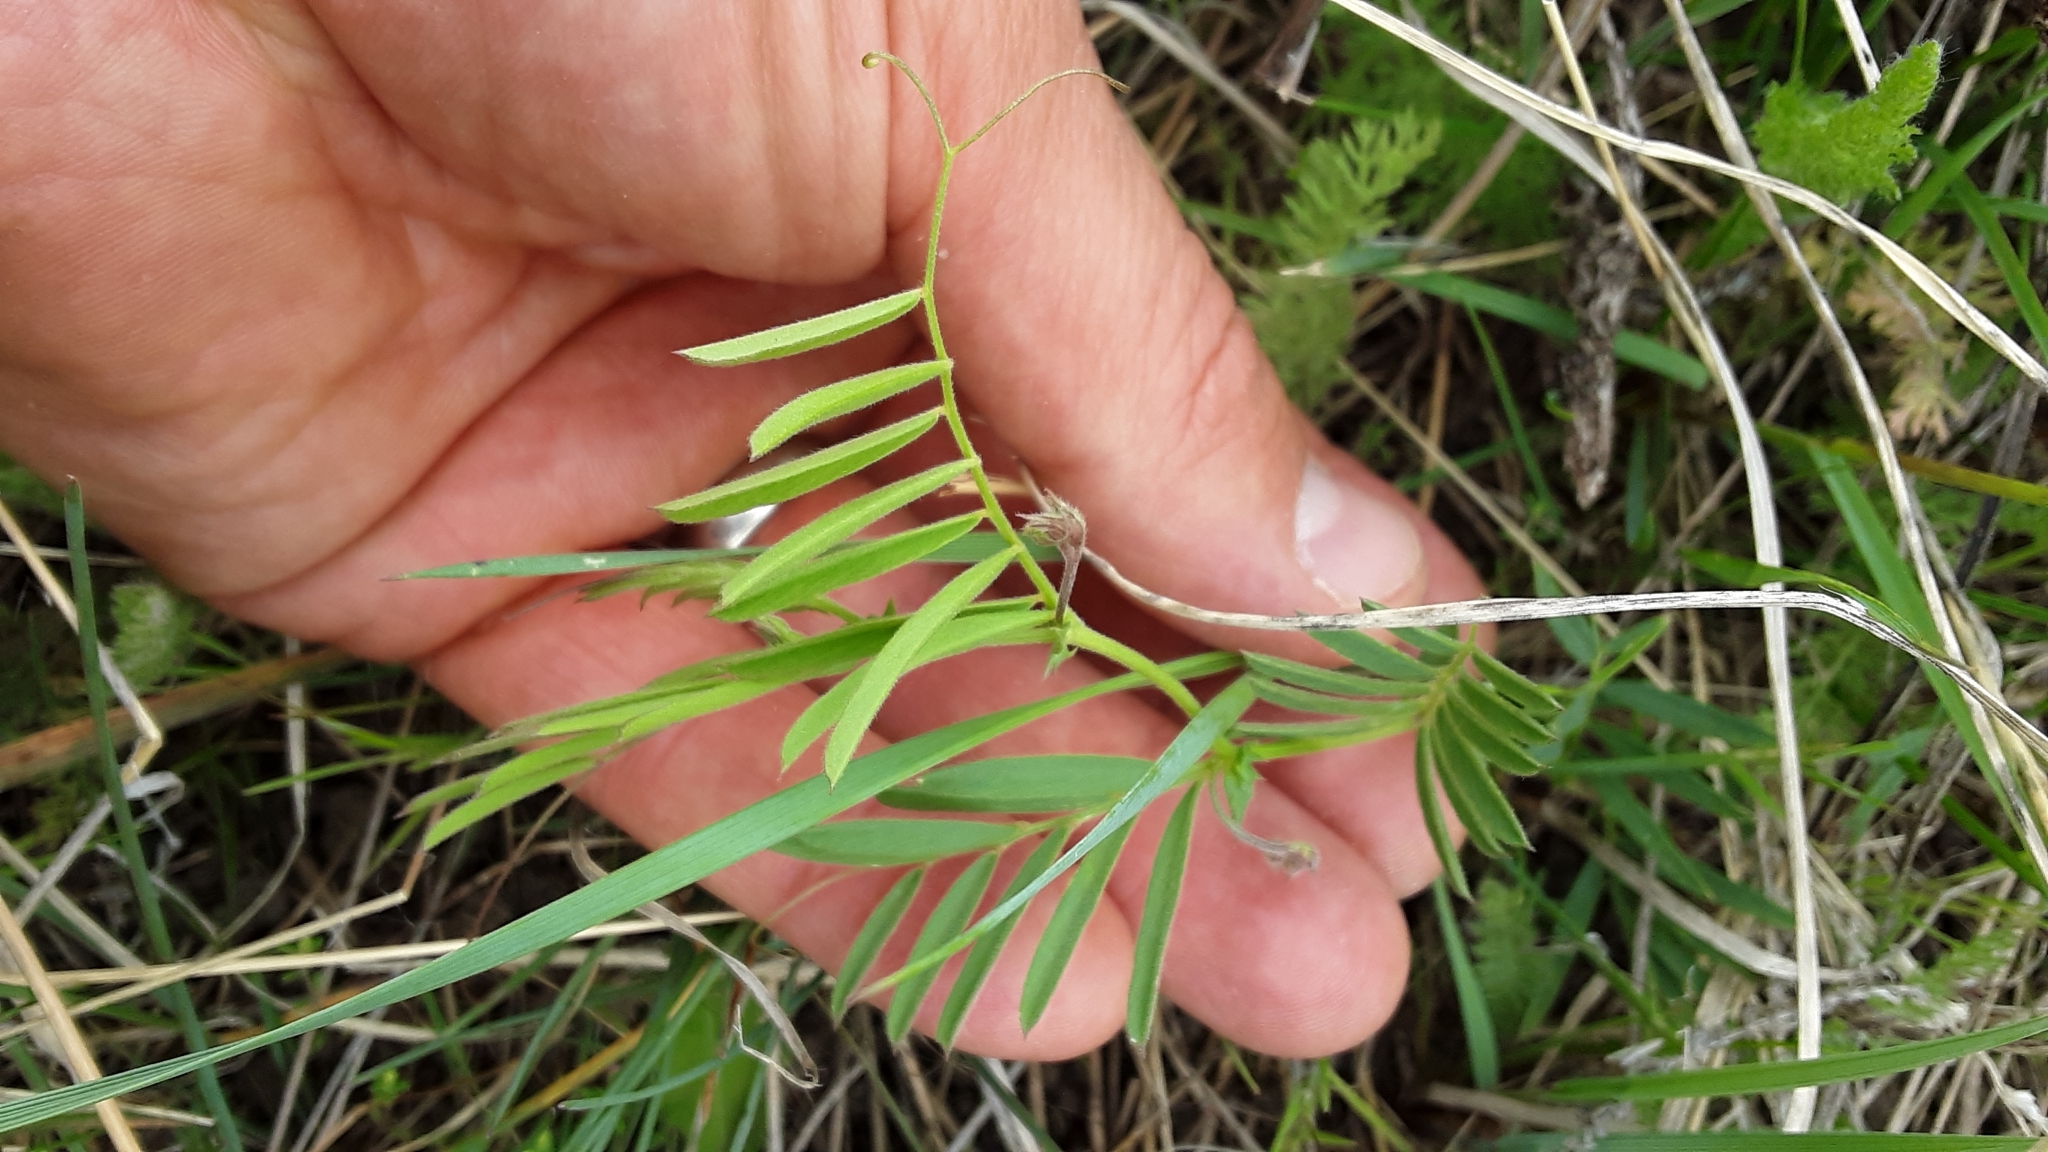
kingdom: Plantae
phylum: Tracheophyta
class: Magnoliopsida
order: Fabales
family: Fabaceae
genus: Vicia
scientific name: Vicia americana
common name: American vetch
